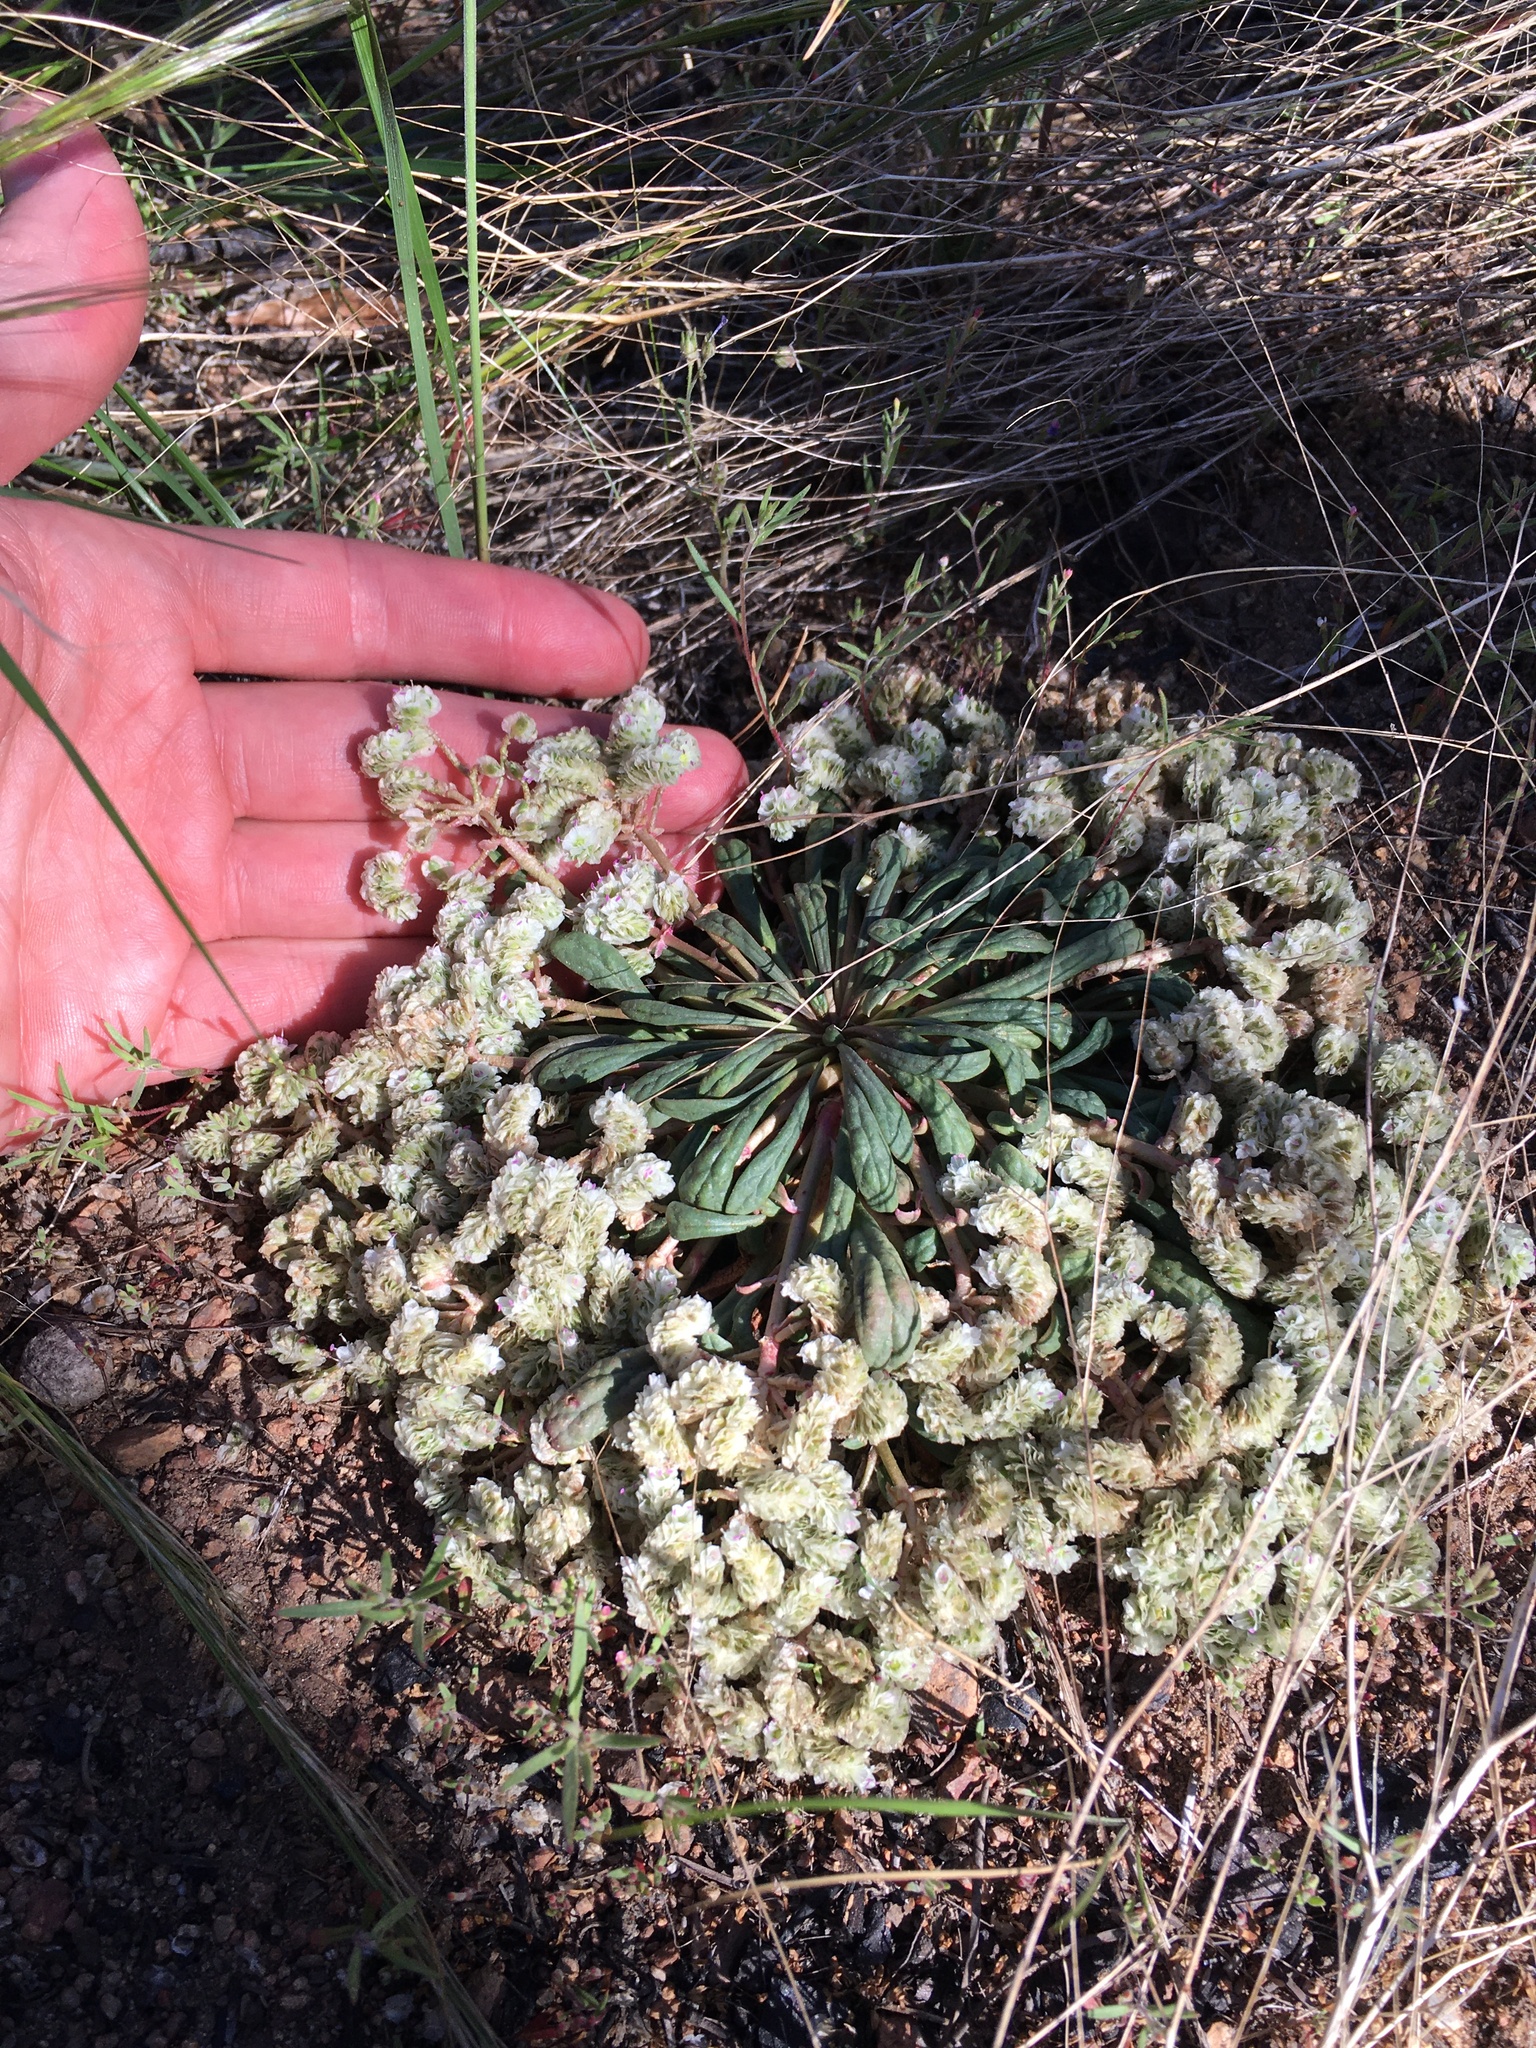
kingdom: Plantae
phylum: Tracheophyta
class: Magnoliopsida
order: Caryophyllales
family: Montiaceae
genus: Calyptridium
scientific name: Calyptridium monospermum
